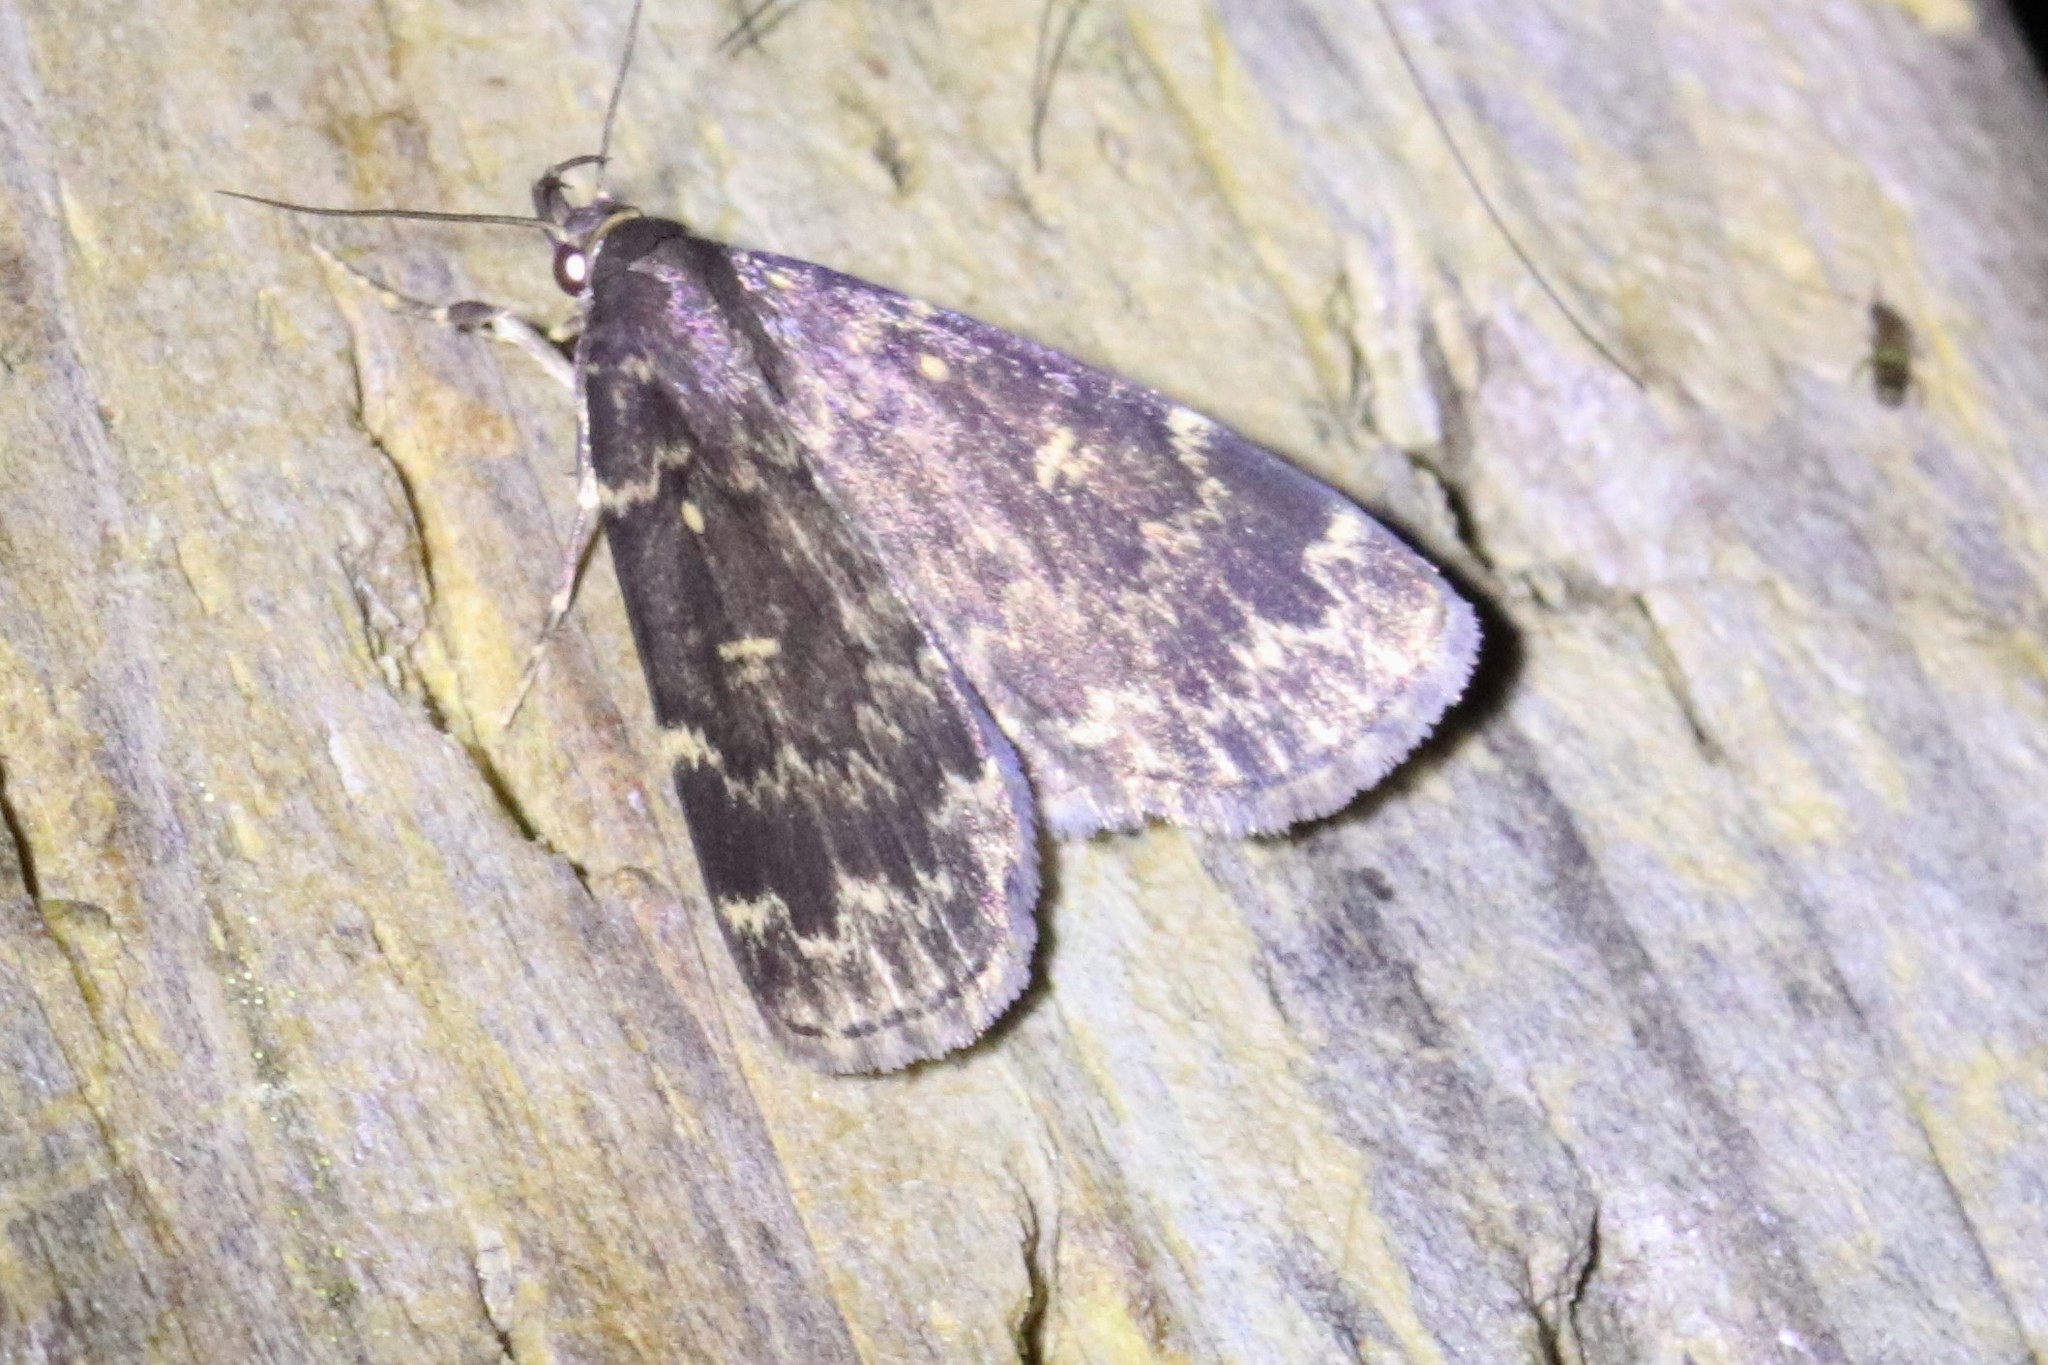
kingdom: Animalia
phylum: Arthropoda
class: Insecta
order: Lepidoptera
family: Erebidae
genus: Idia
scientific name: Idia lubricalis
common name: Twin-striped tabby
